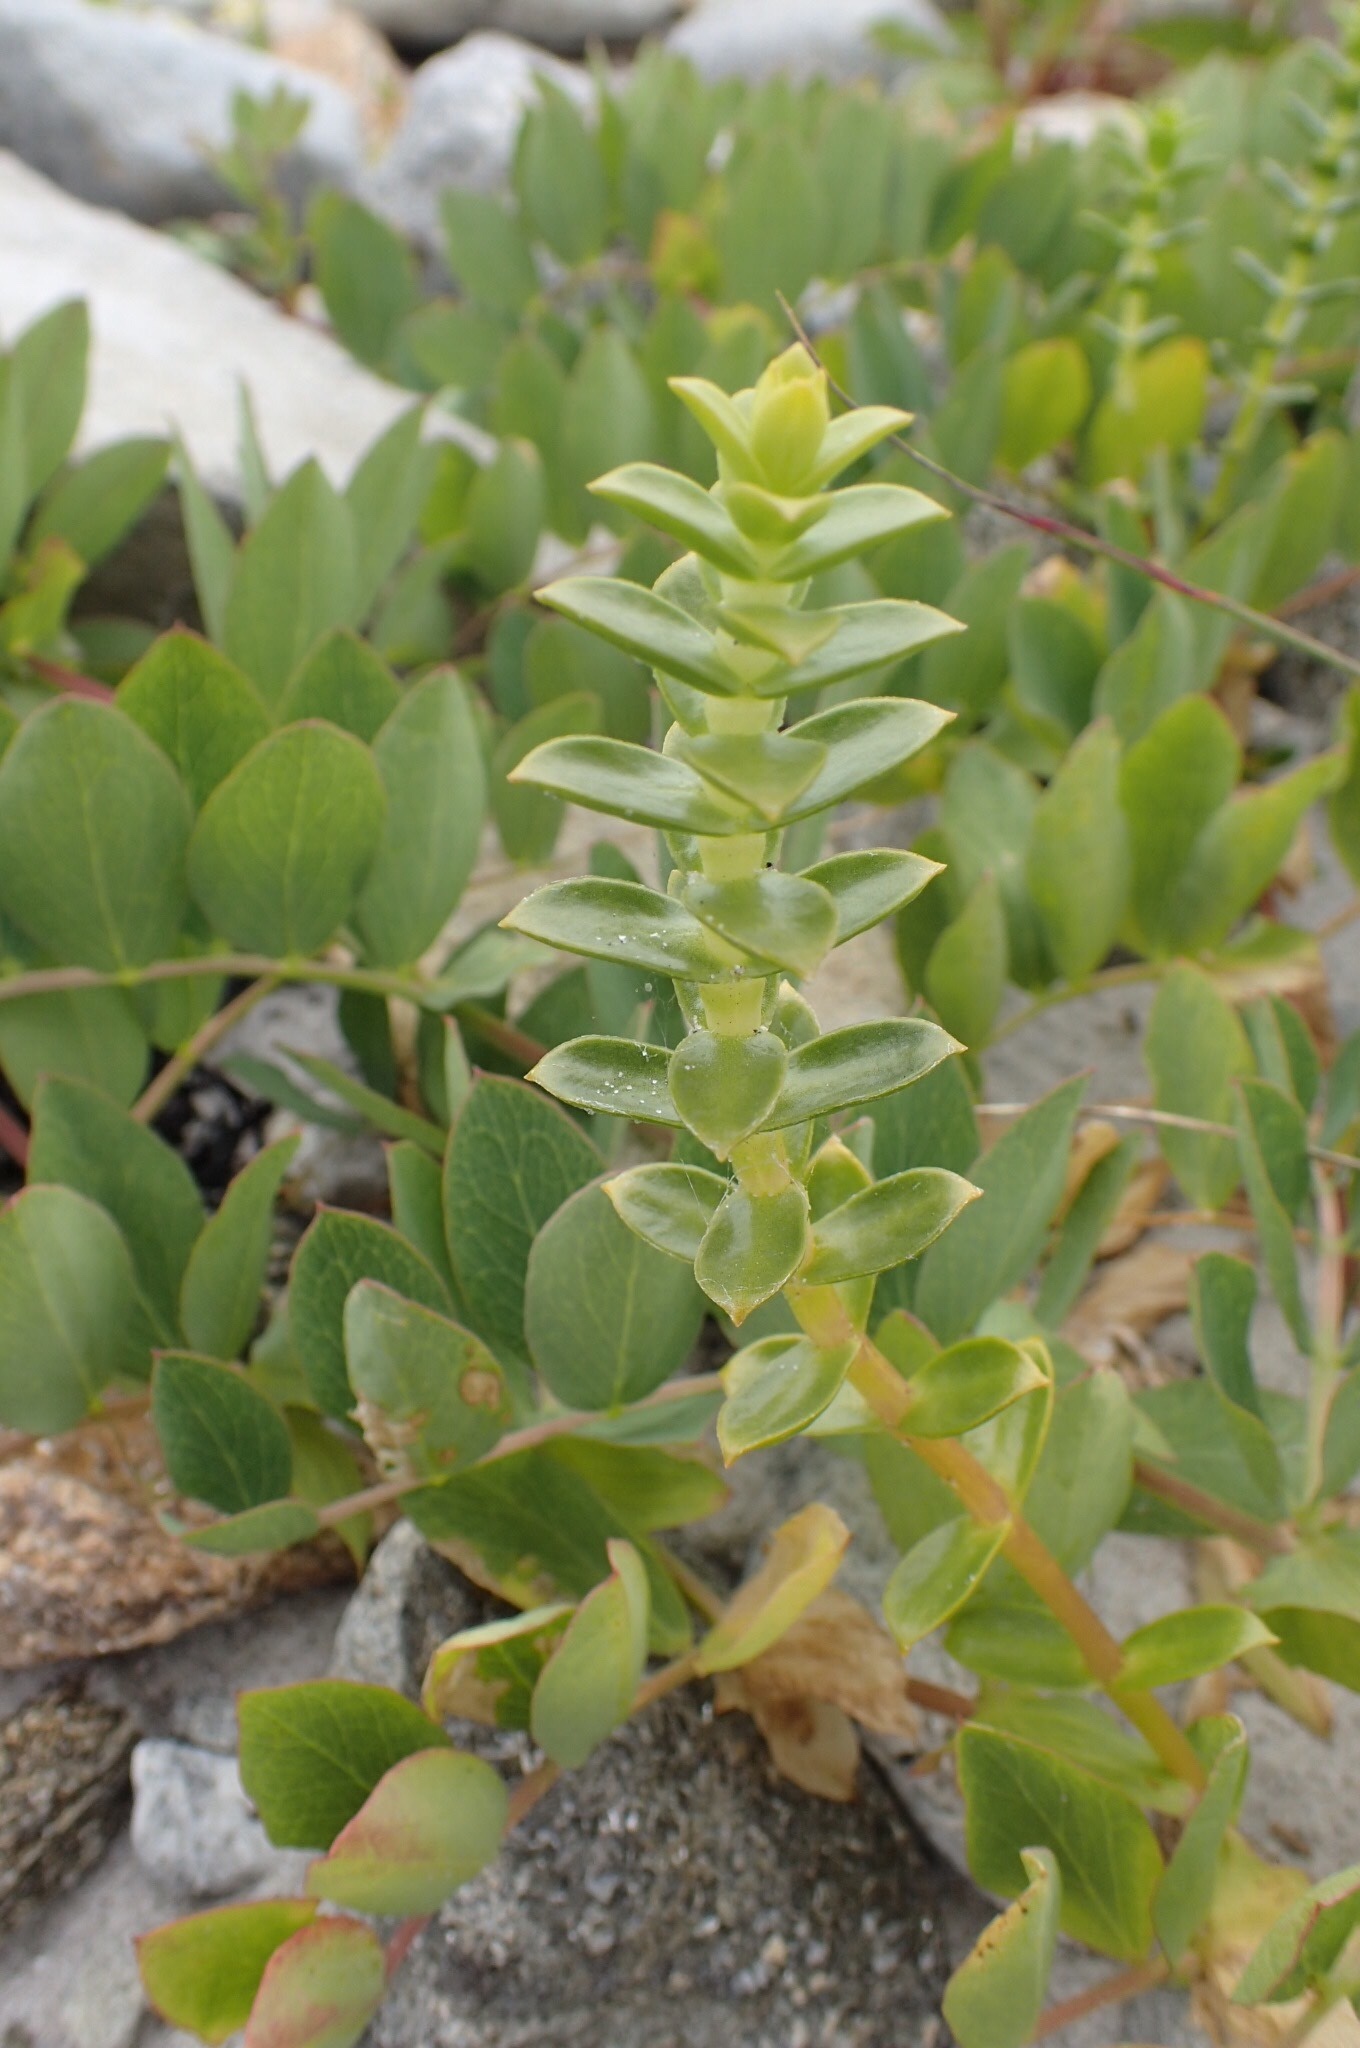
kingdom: Plantae
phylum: Tracheophyta
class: Magnoliopsida
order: Caryophyllales
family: Caryophyllaceae
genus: Honckenya
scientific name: Honckenya peploides
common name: Sea sandwort
